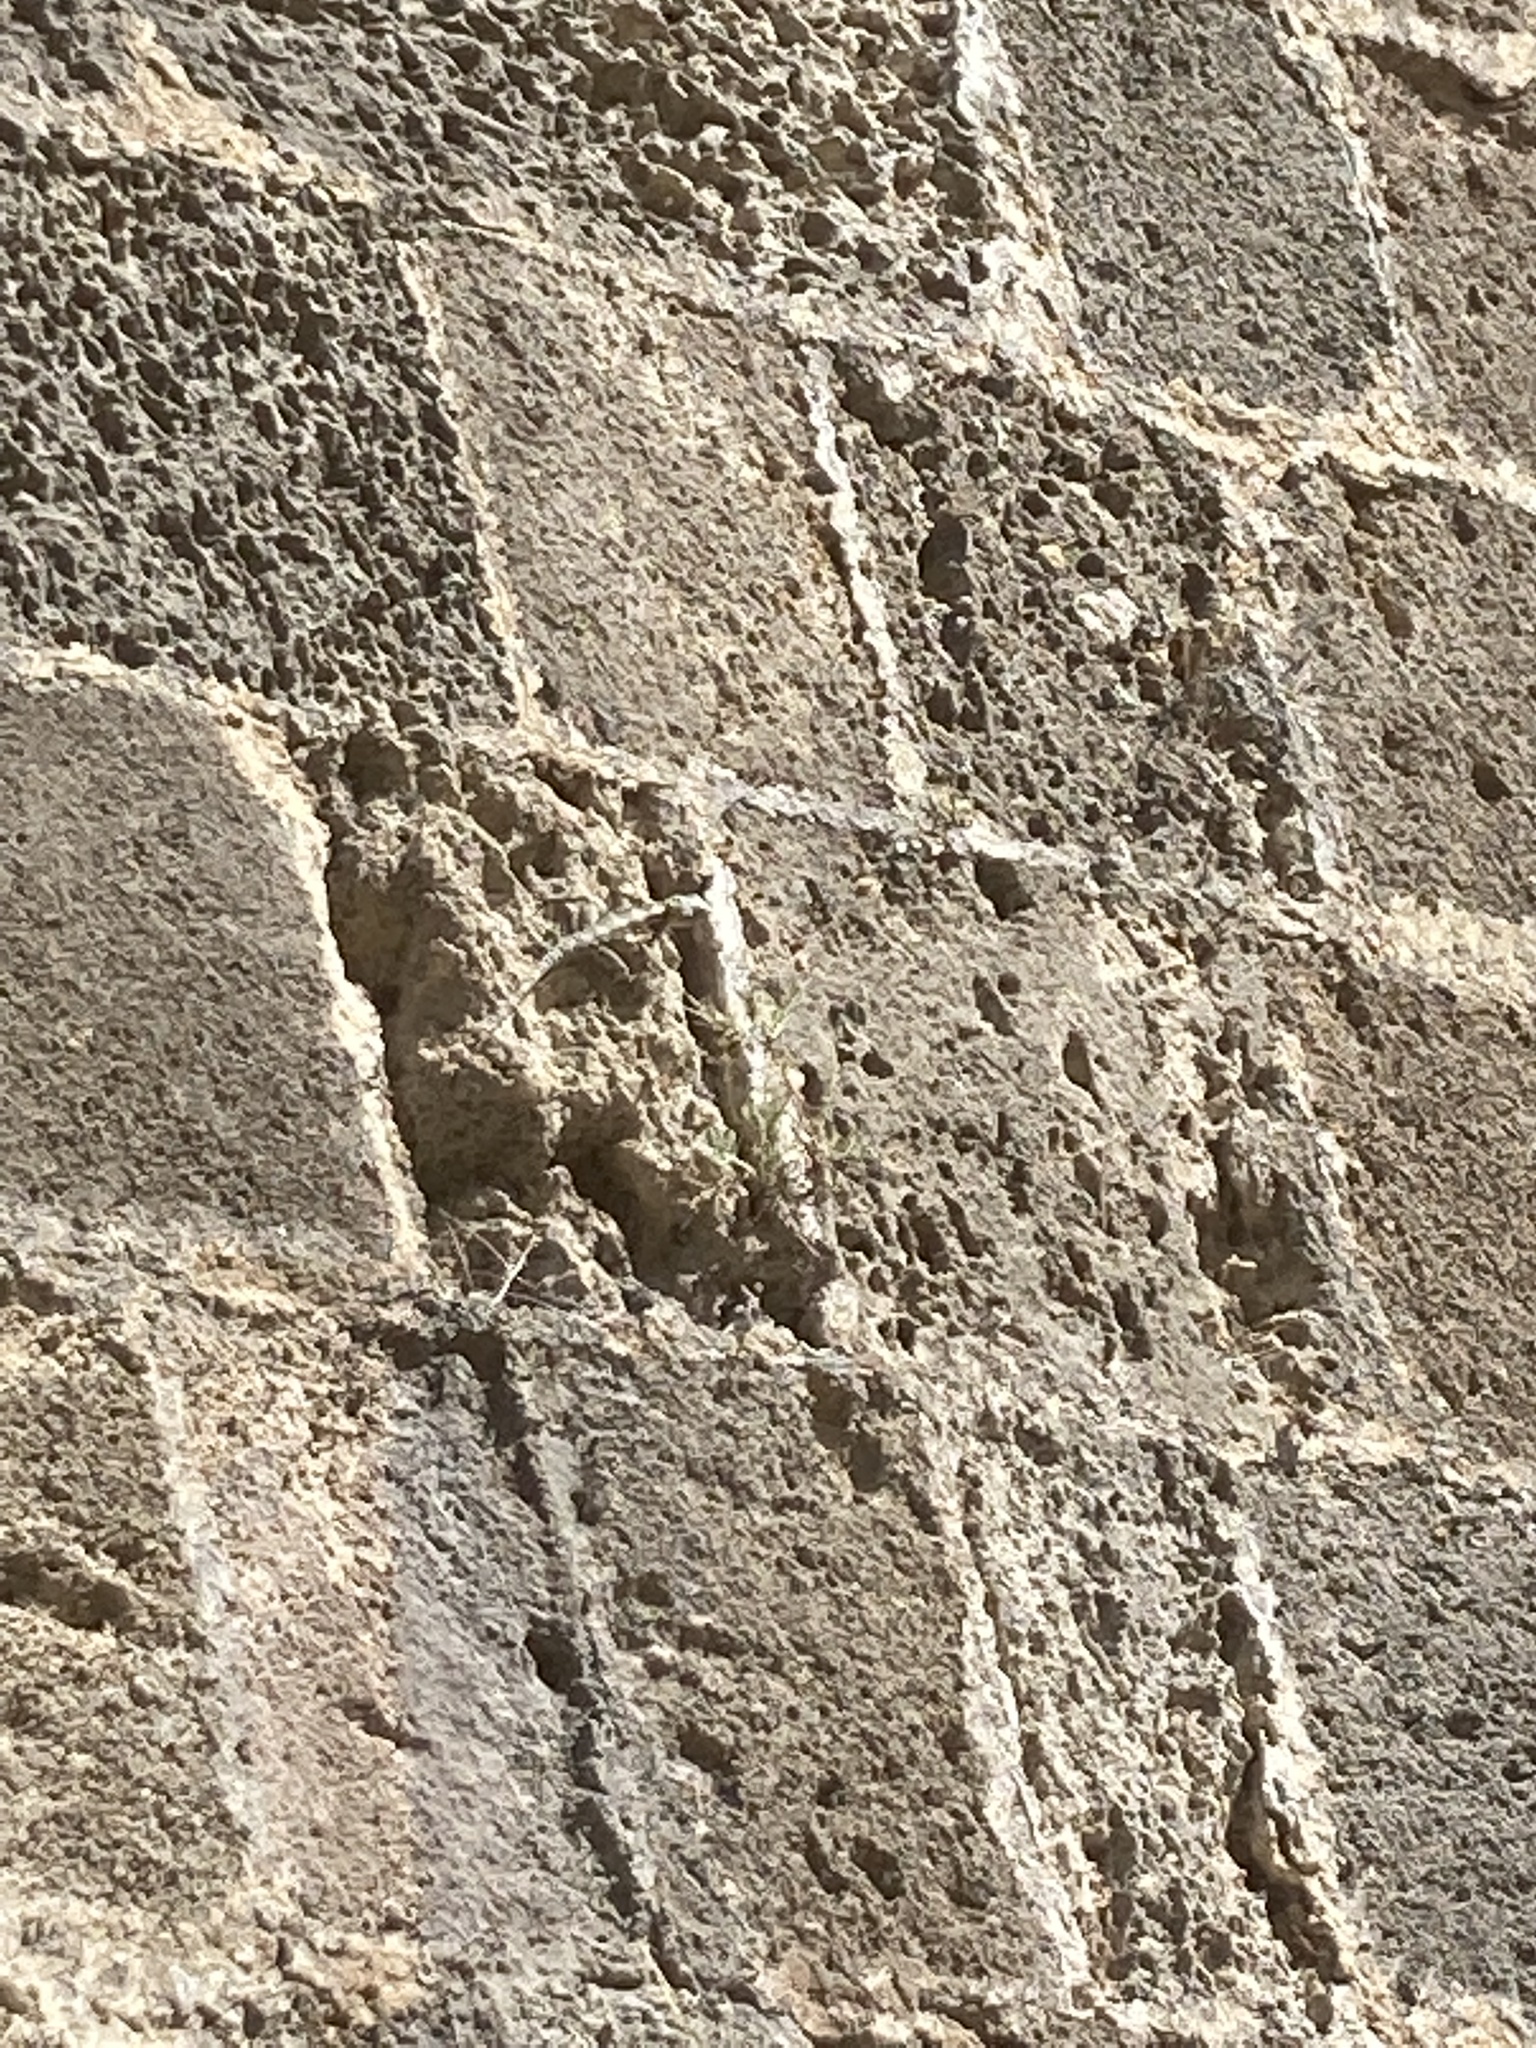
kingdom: Animalia
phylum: Chordata
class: Squamata
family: Agamidae
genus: Stellagama
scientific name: Stellagama stellio
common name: Starred agama
